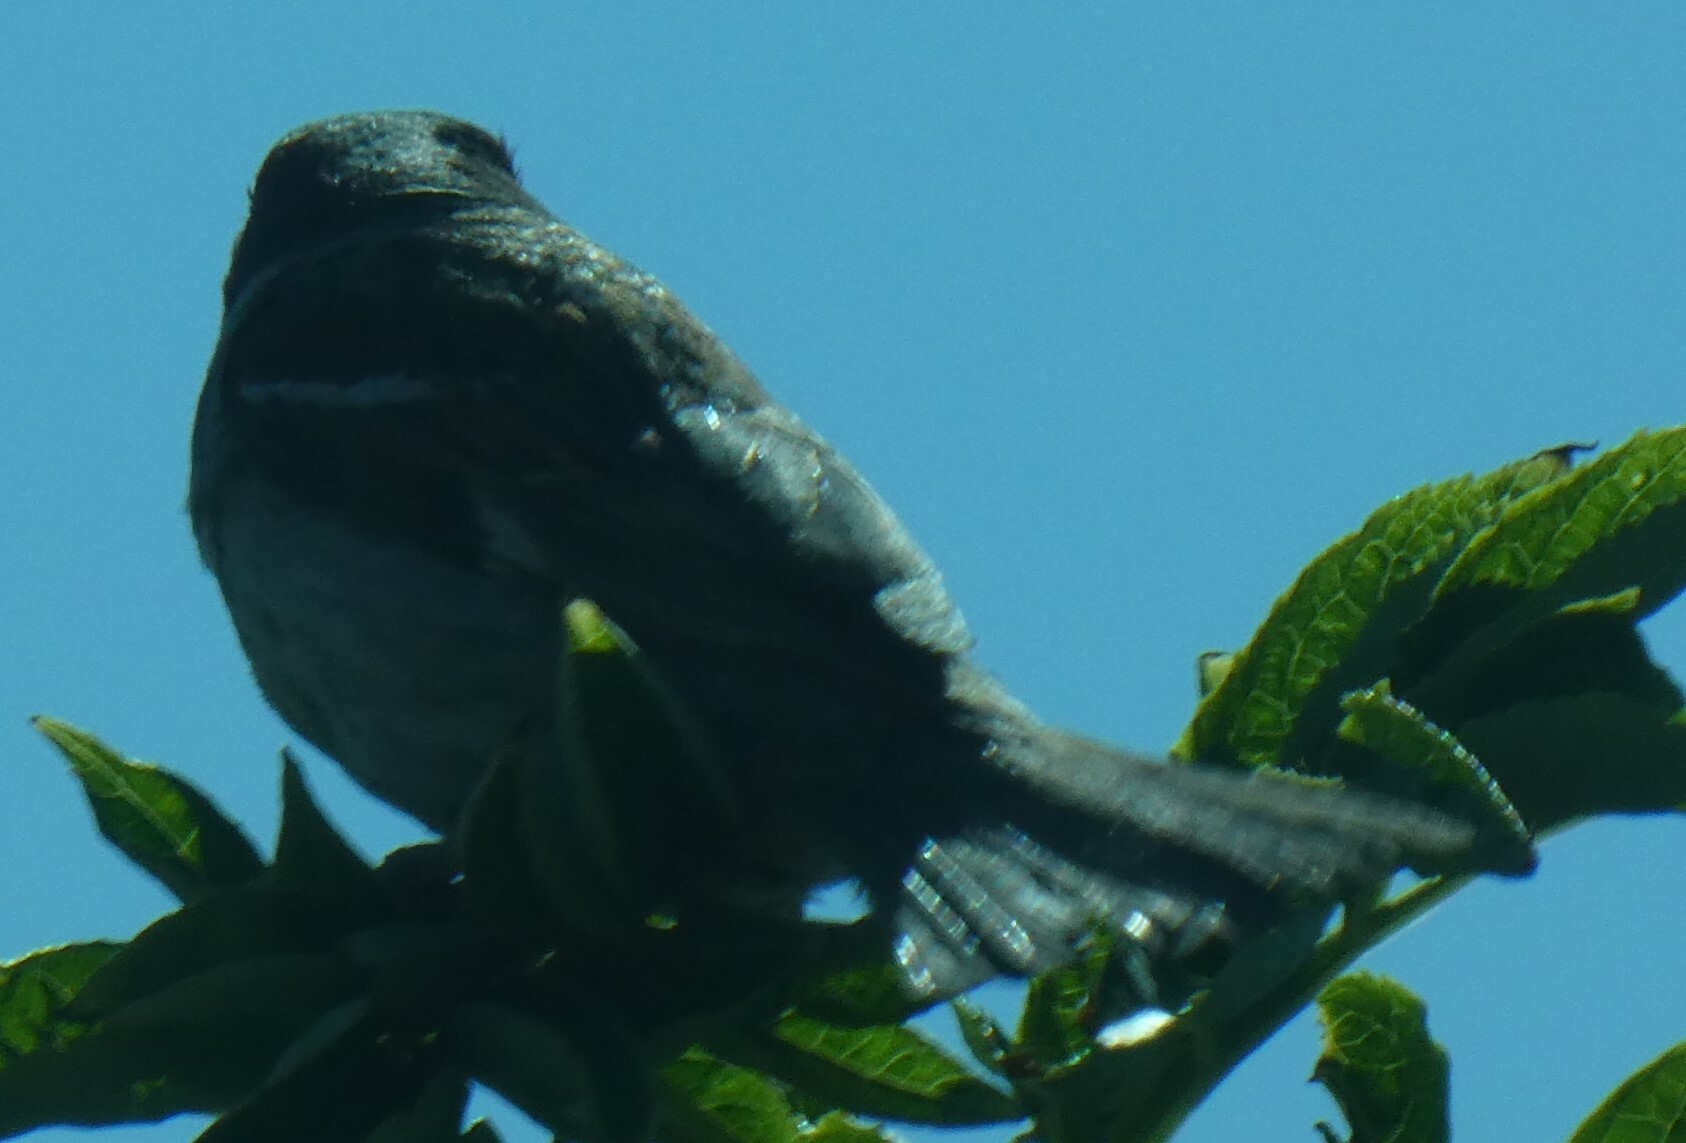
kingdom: Animalia
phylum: Chordata
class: Aves
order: Passeriformes
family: Passeridae
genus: Passer
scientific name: Passer domesticus
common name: House sparrow
